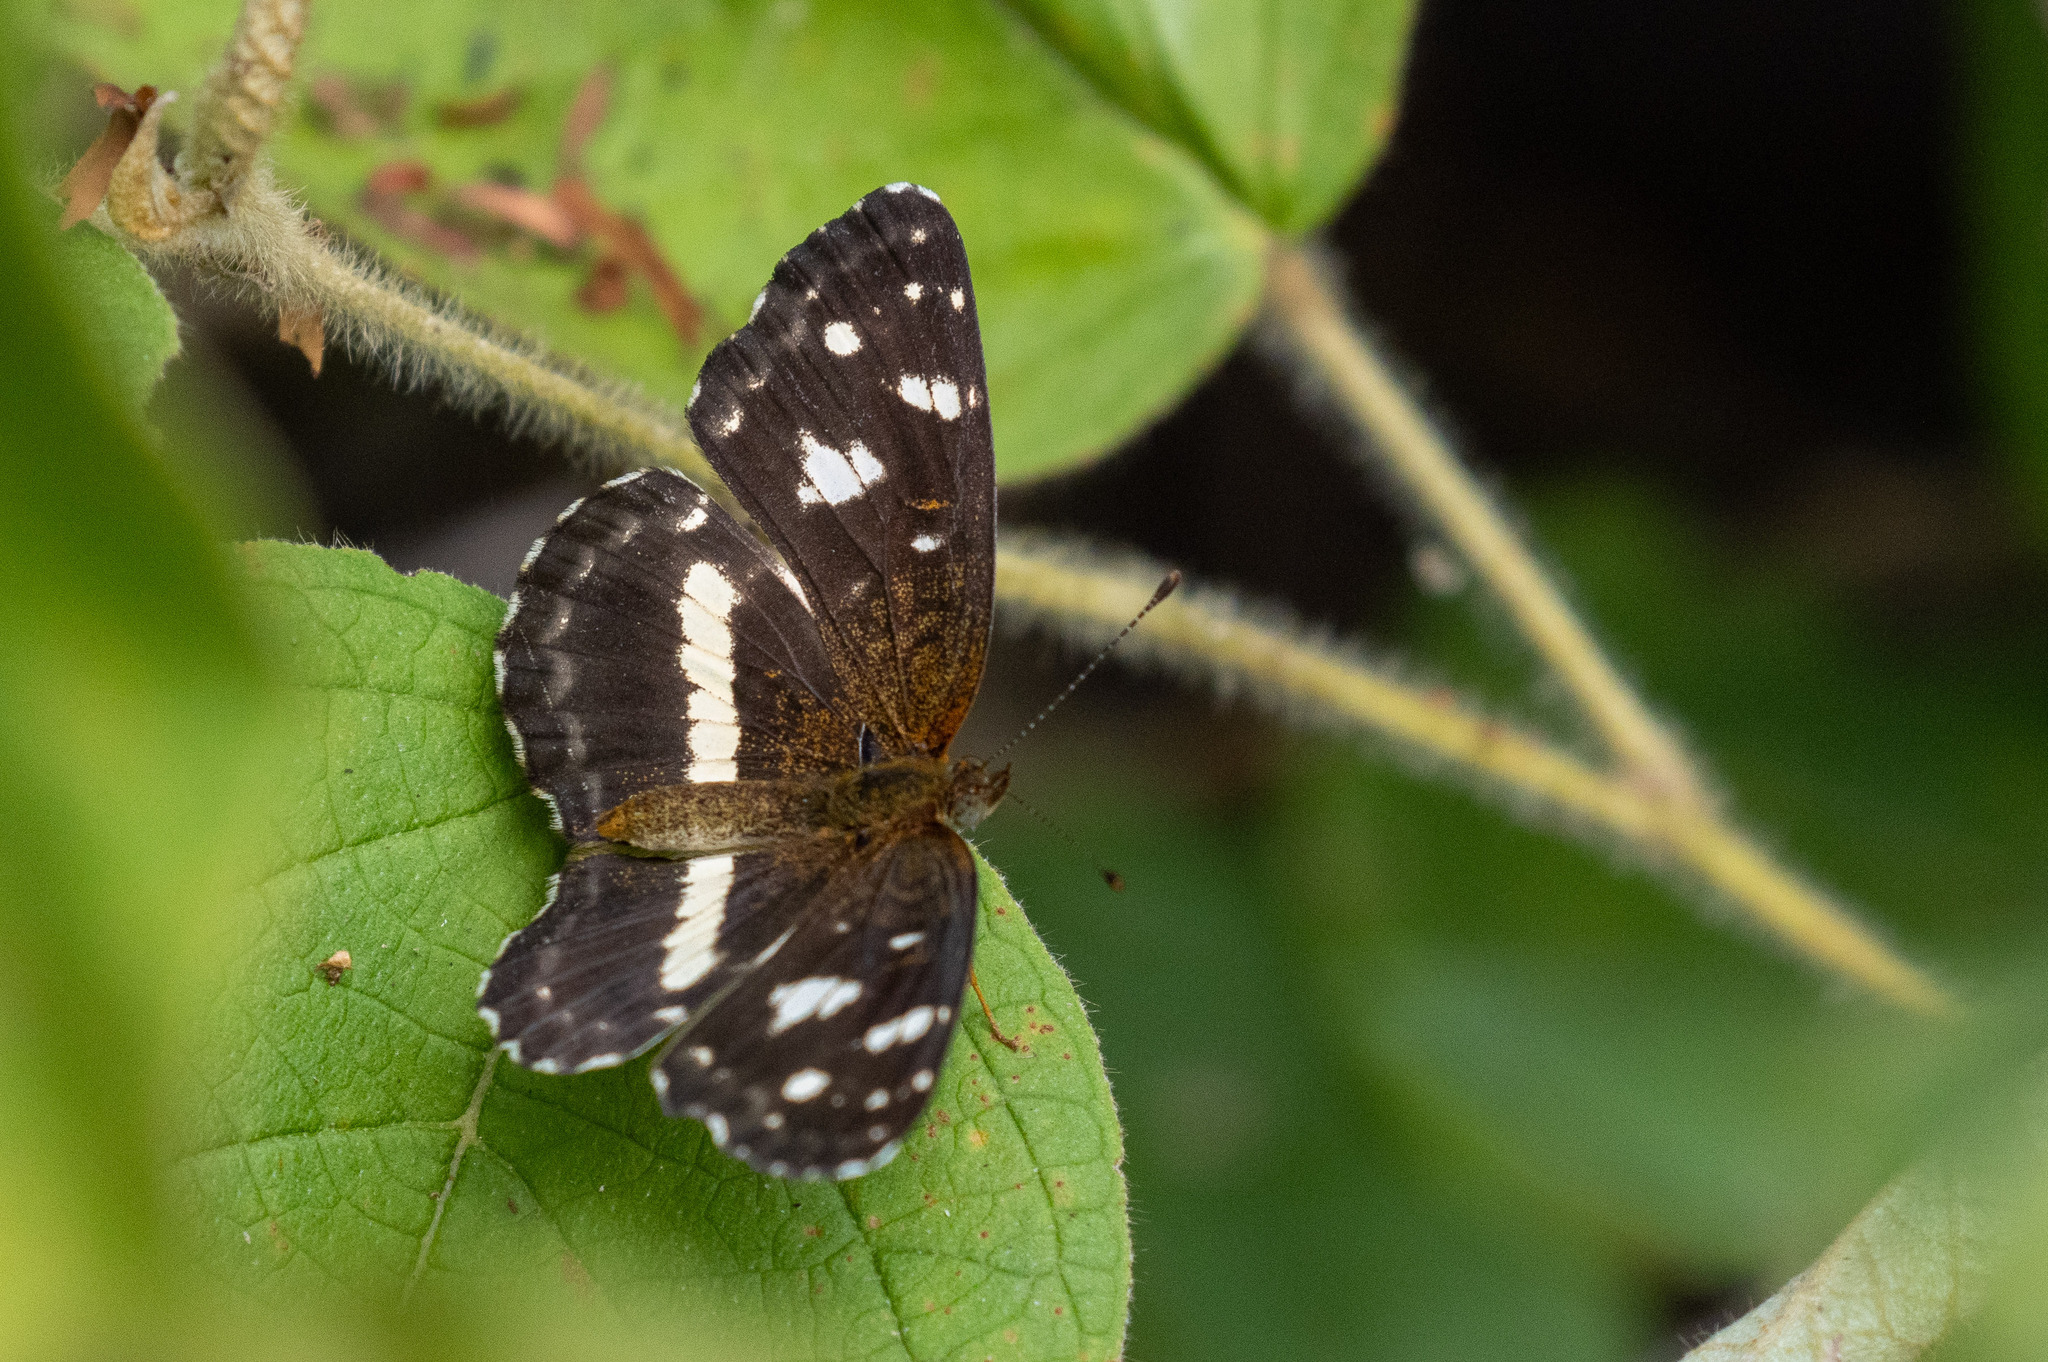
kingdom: Animalia
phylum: Arthropoda
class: Insecta
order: Lepidoptera
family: Nymphalidae
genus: Ortilia
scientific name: Ortilia ithra
